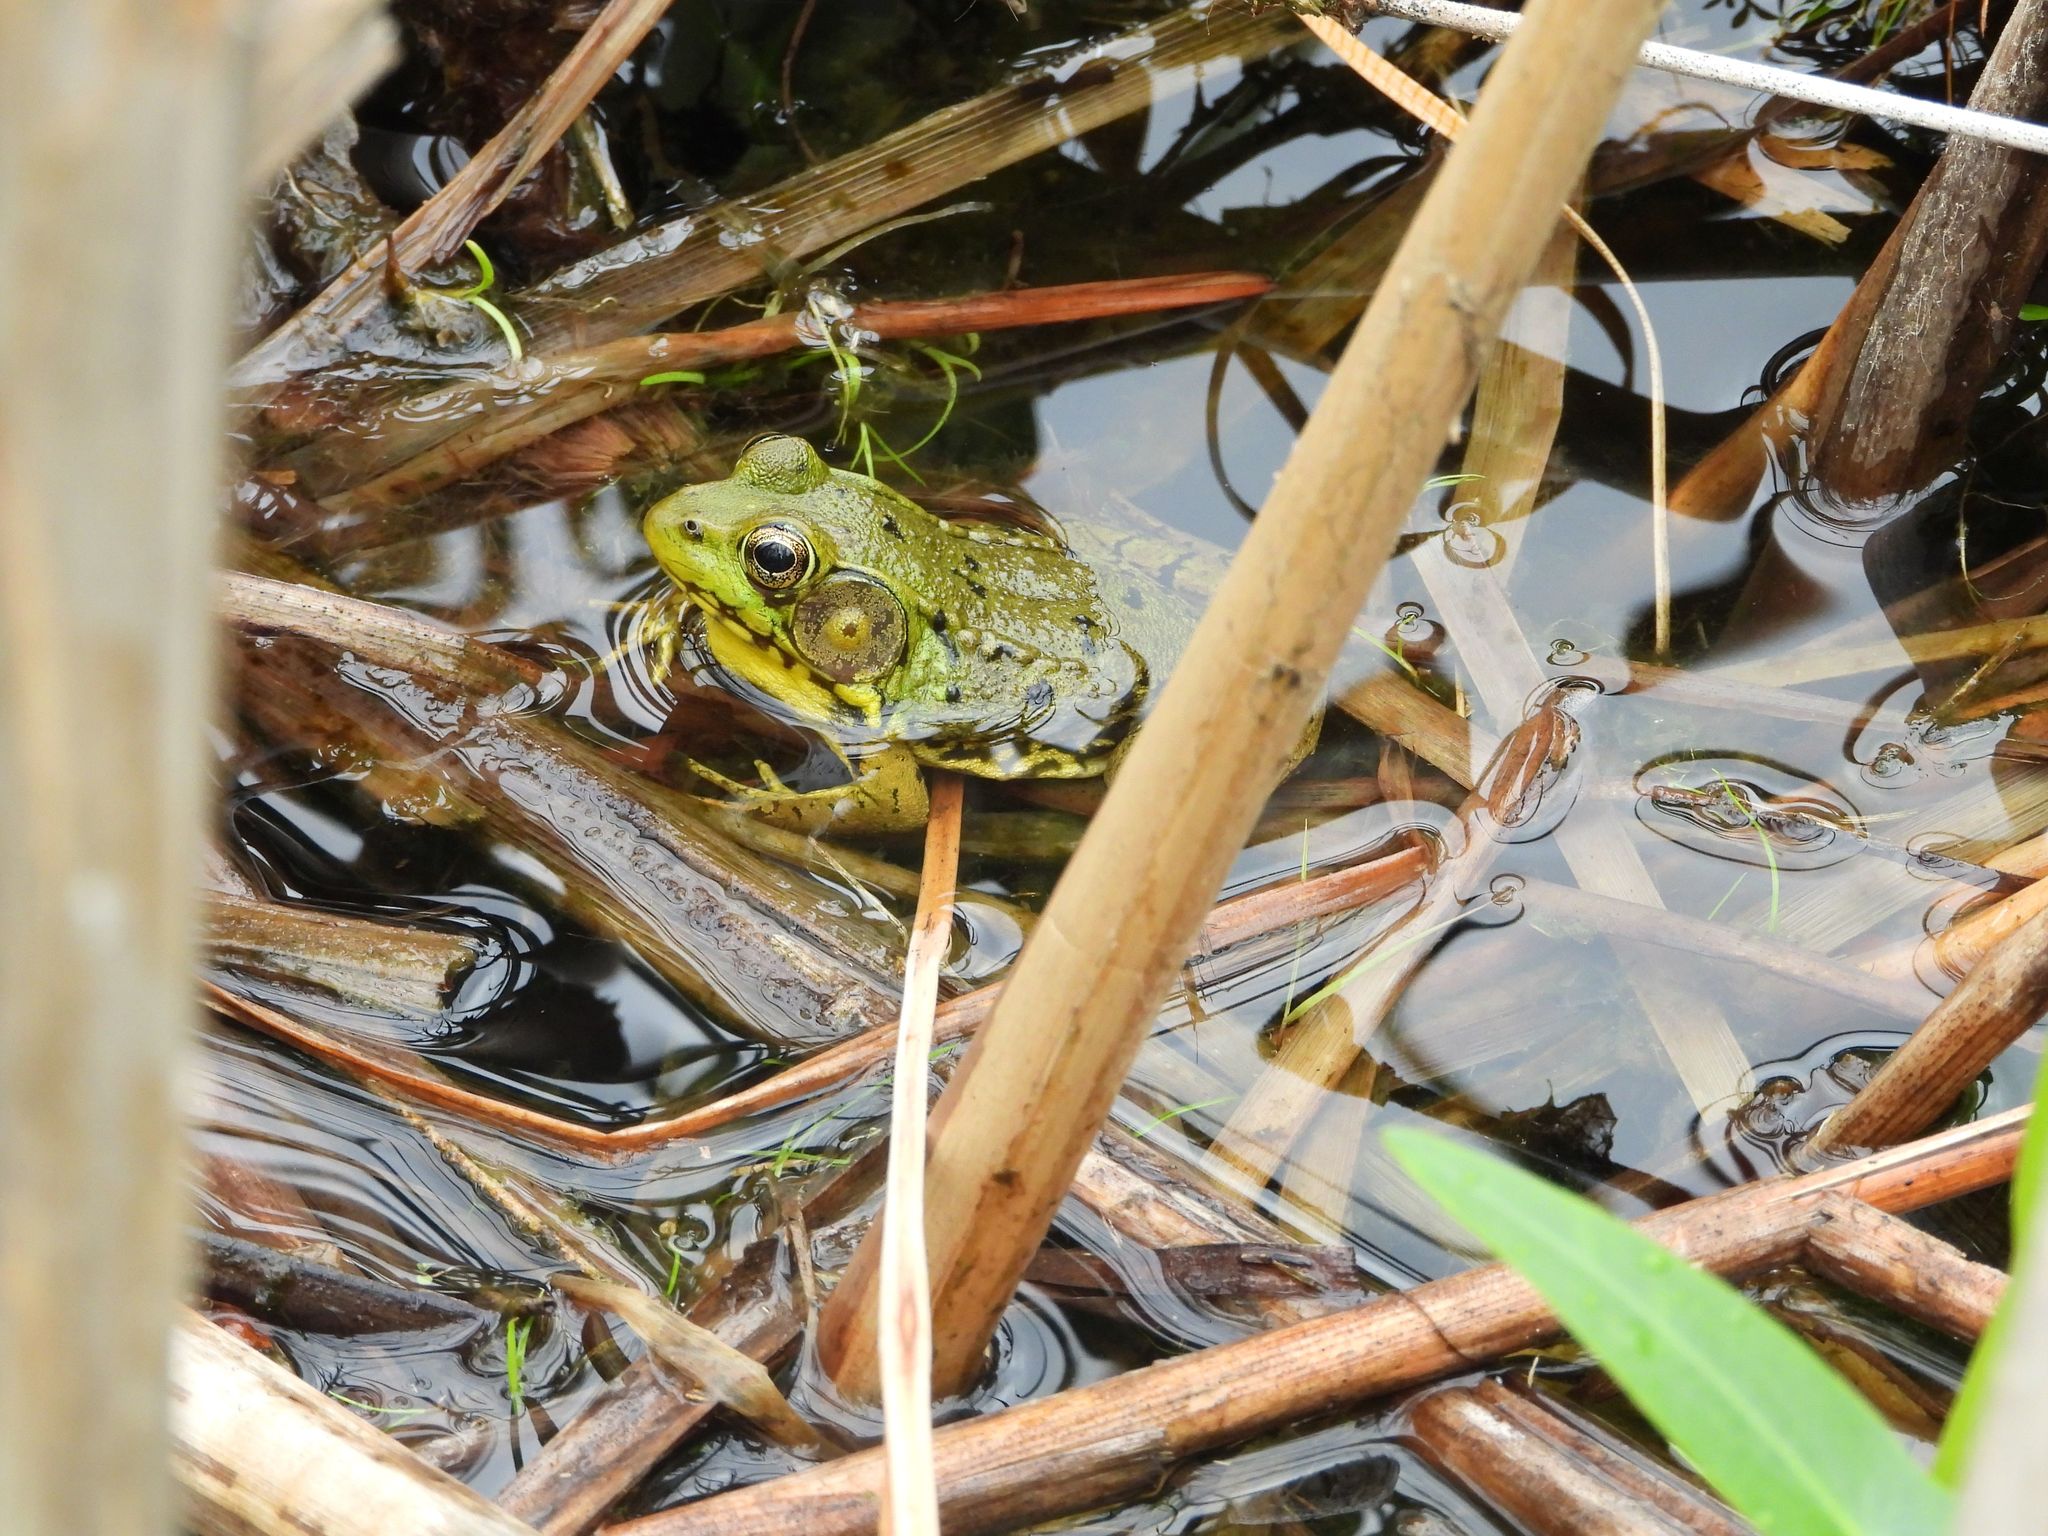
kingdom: Animalia
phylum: Chordata
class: Amphibia
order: Anura
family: Ranidae
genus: Lithobates
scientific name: Lithobates clamitans
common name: Green frog
